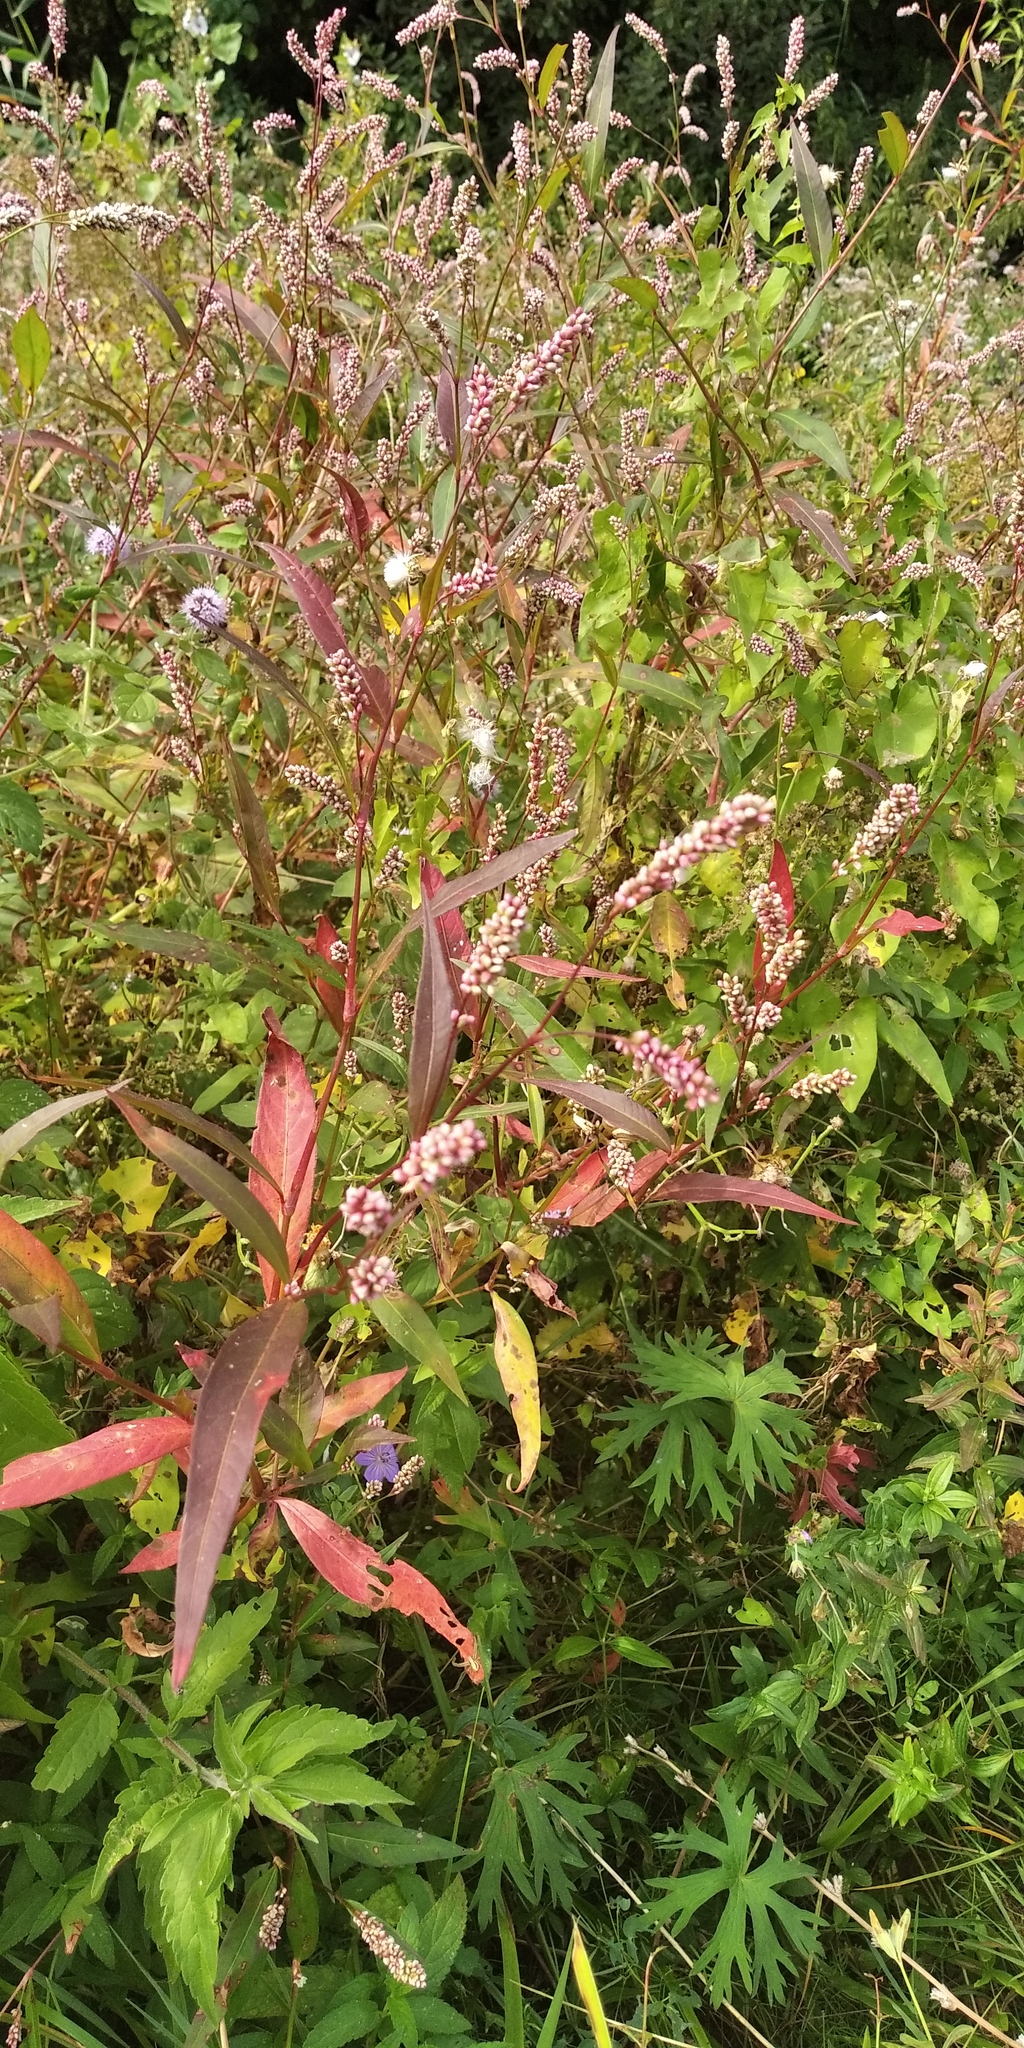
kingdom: Plantae
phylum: Tracheophyta
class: Magnoliopsida
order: Caryophyllales
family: Polygonaceae
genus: Persicaria
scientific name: Persicaria lapathifolia
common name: Curlytop knotweed
